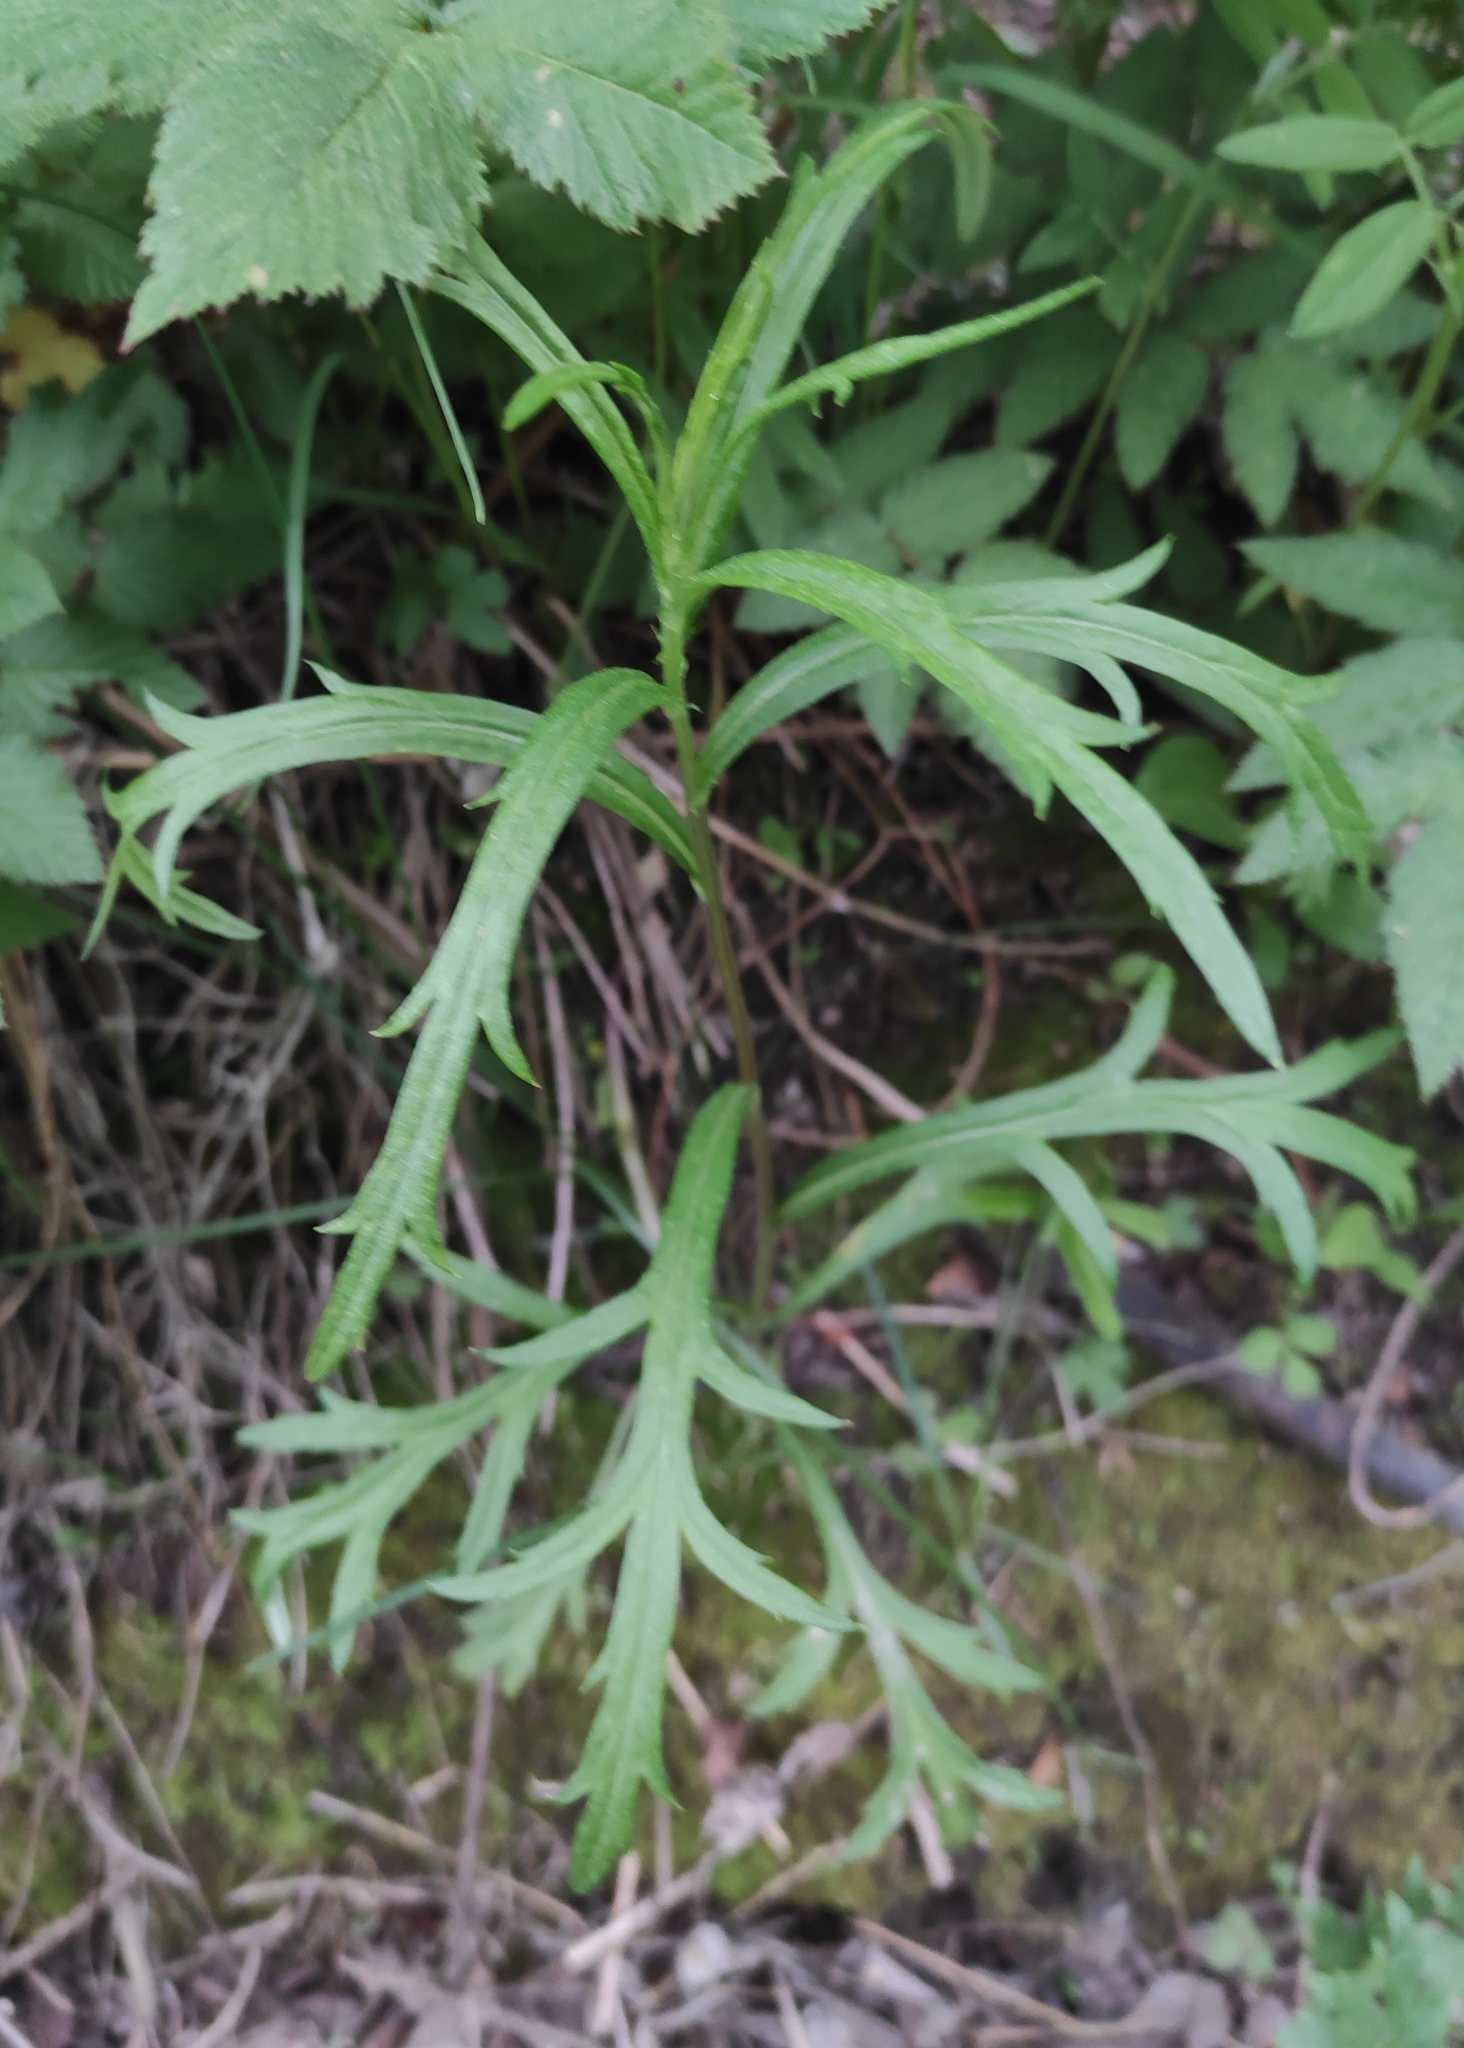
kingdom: Plantae
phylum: Tracheophyta
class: Magnoliopsida
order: Asterales
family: Asteraceae
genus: Artemisia
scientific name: Artemisia integrifolia
